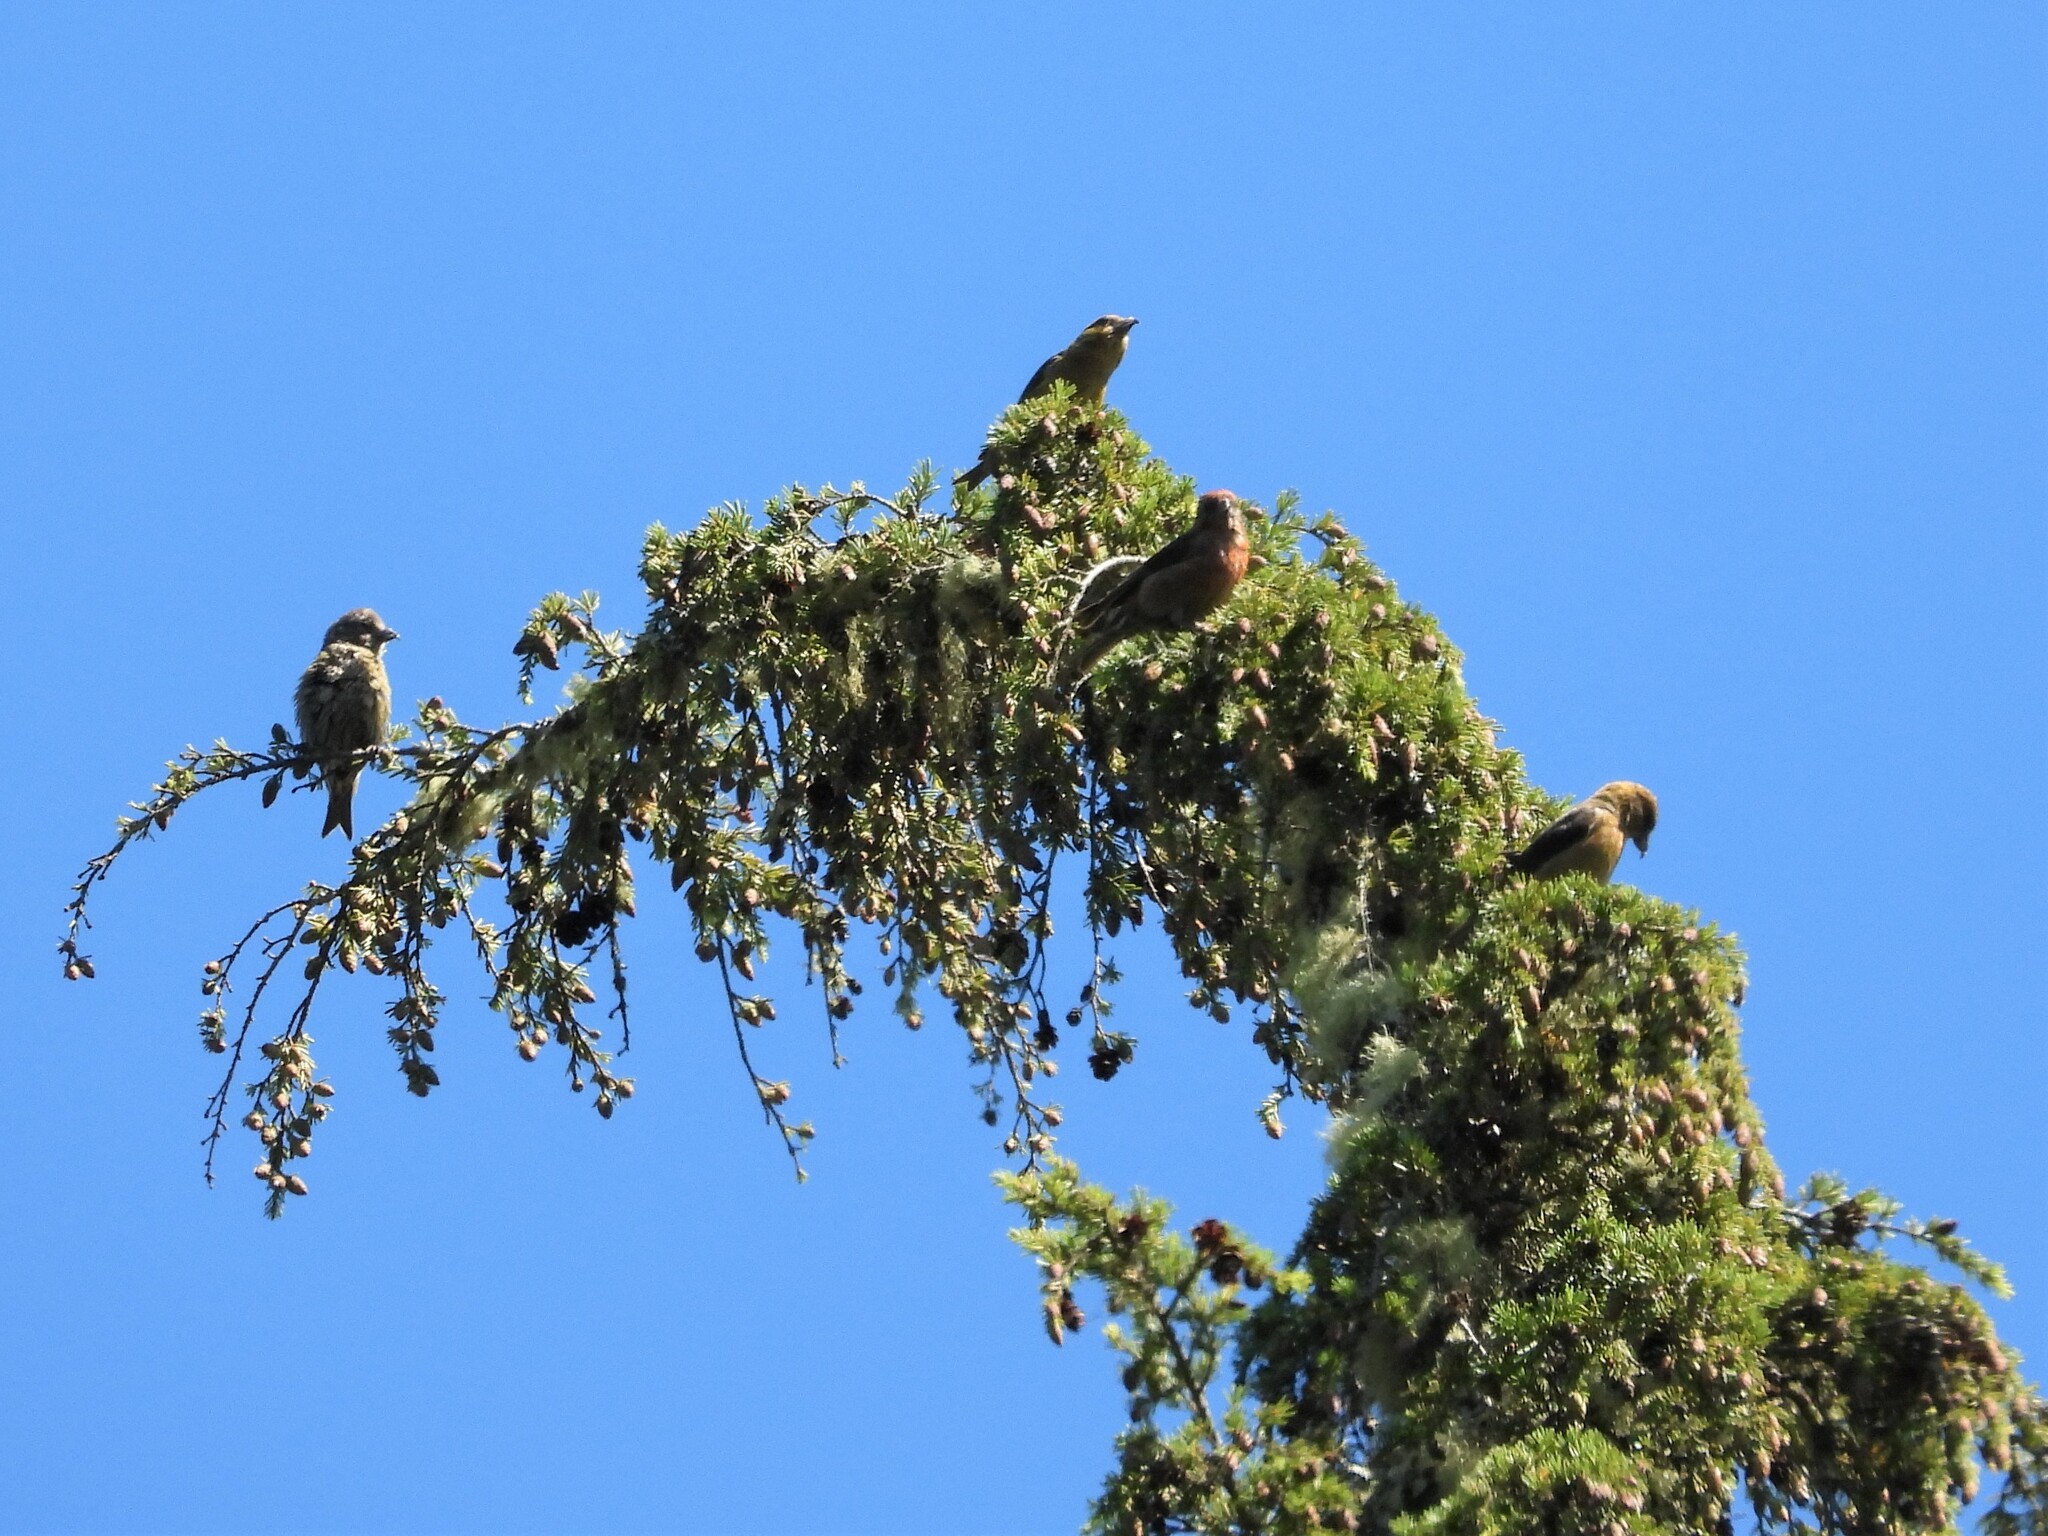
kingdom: Animalia
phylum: Chordata
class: Aves
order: Passeriformes
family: Fringillidae
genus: Loxia
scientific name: Loxia curvirostra
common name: Red crossbill
